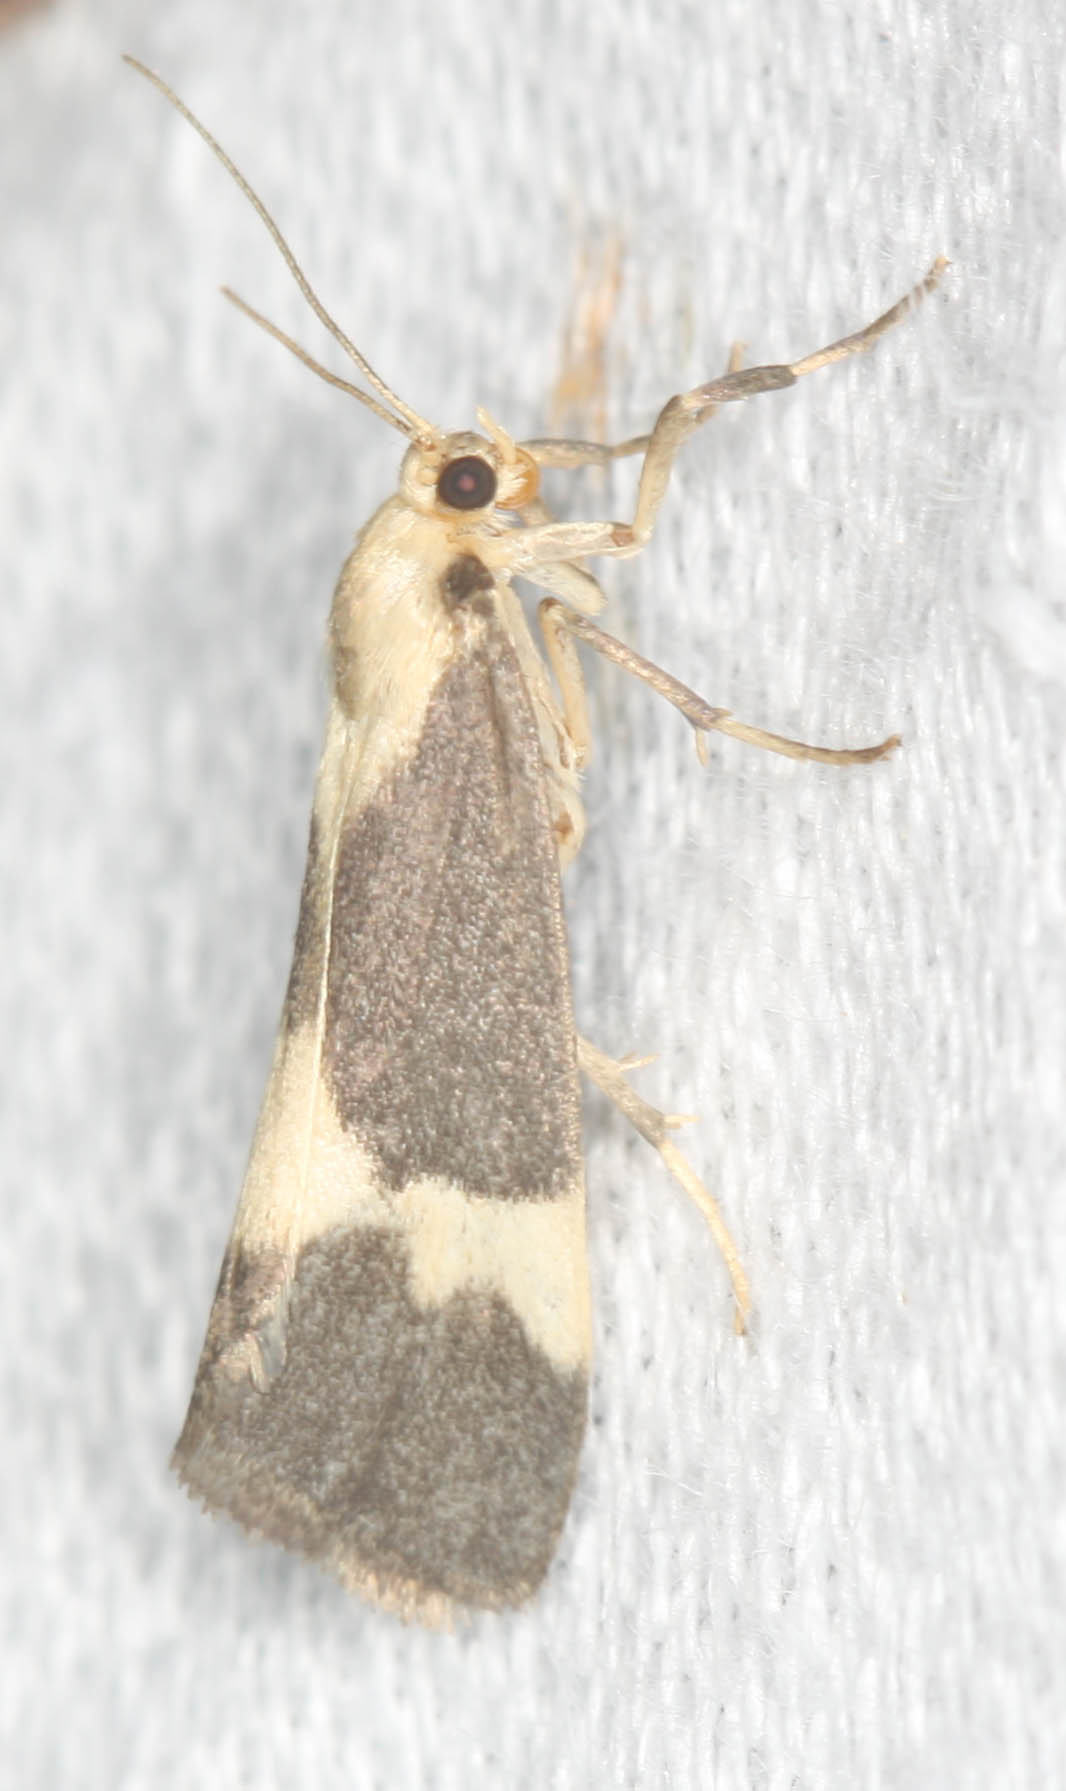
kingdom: Animalia
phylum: Arthropoda
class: Insecta
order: Lepidoptera
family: Erebidae
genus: Cisthene
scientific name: Cisthene faustinula
